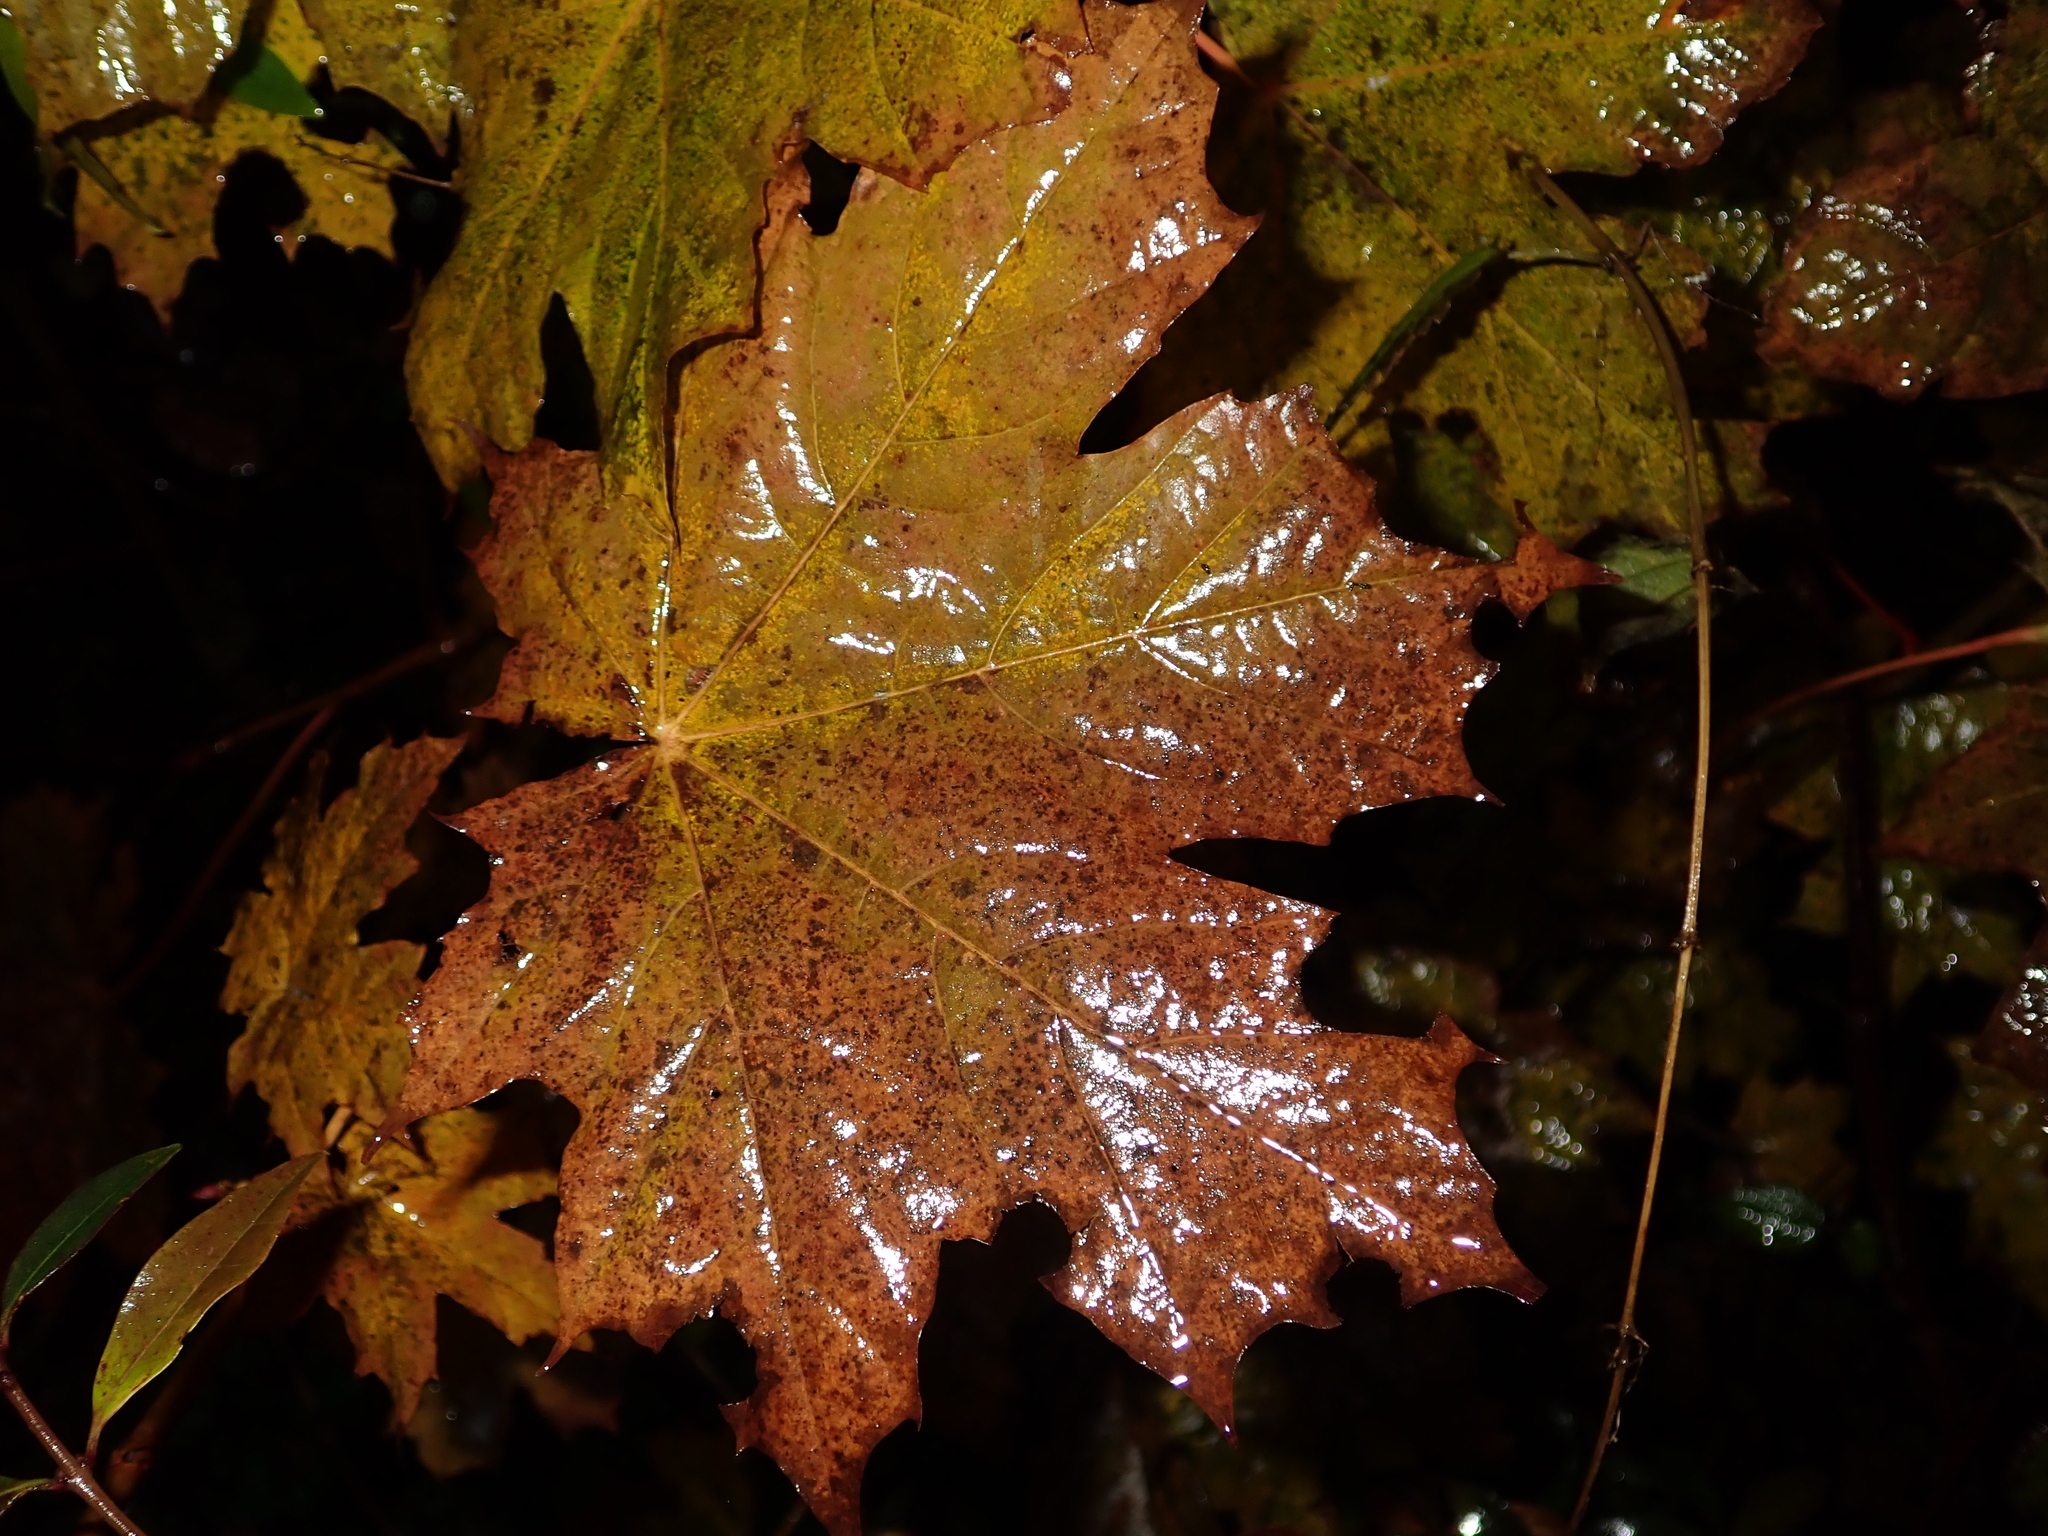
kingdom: Plantae
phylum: Tracheophyta
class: Magnoliopsida
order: Sapindales
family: Sapindaceae
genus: Acer
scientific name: Acer platanoides
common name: Norway maple
